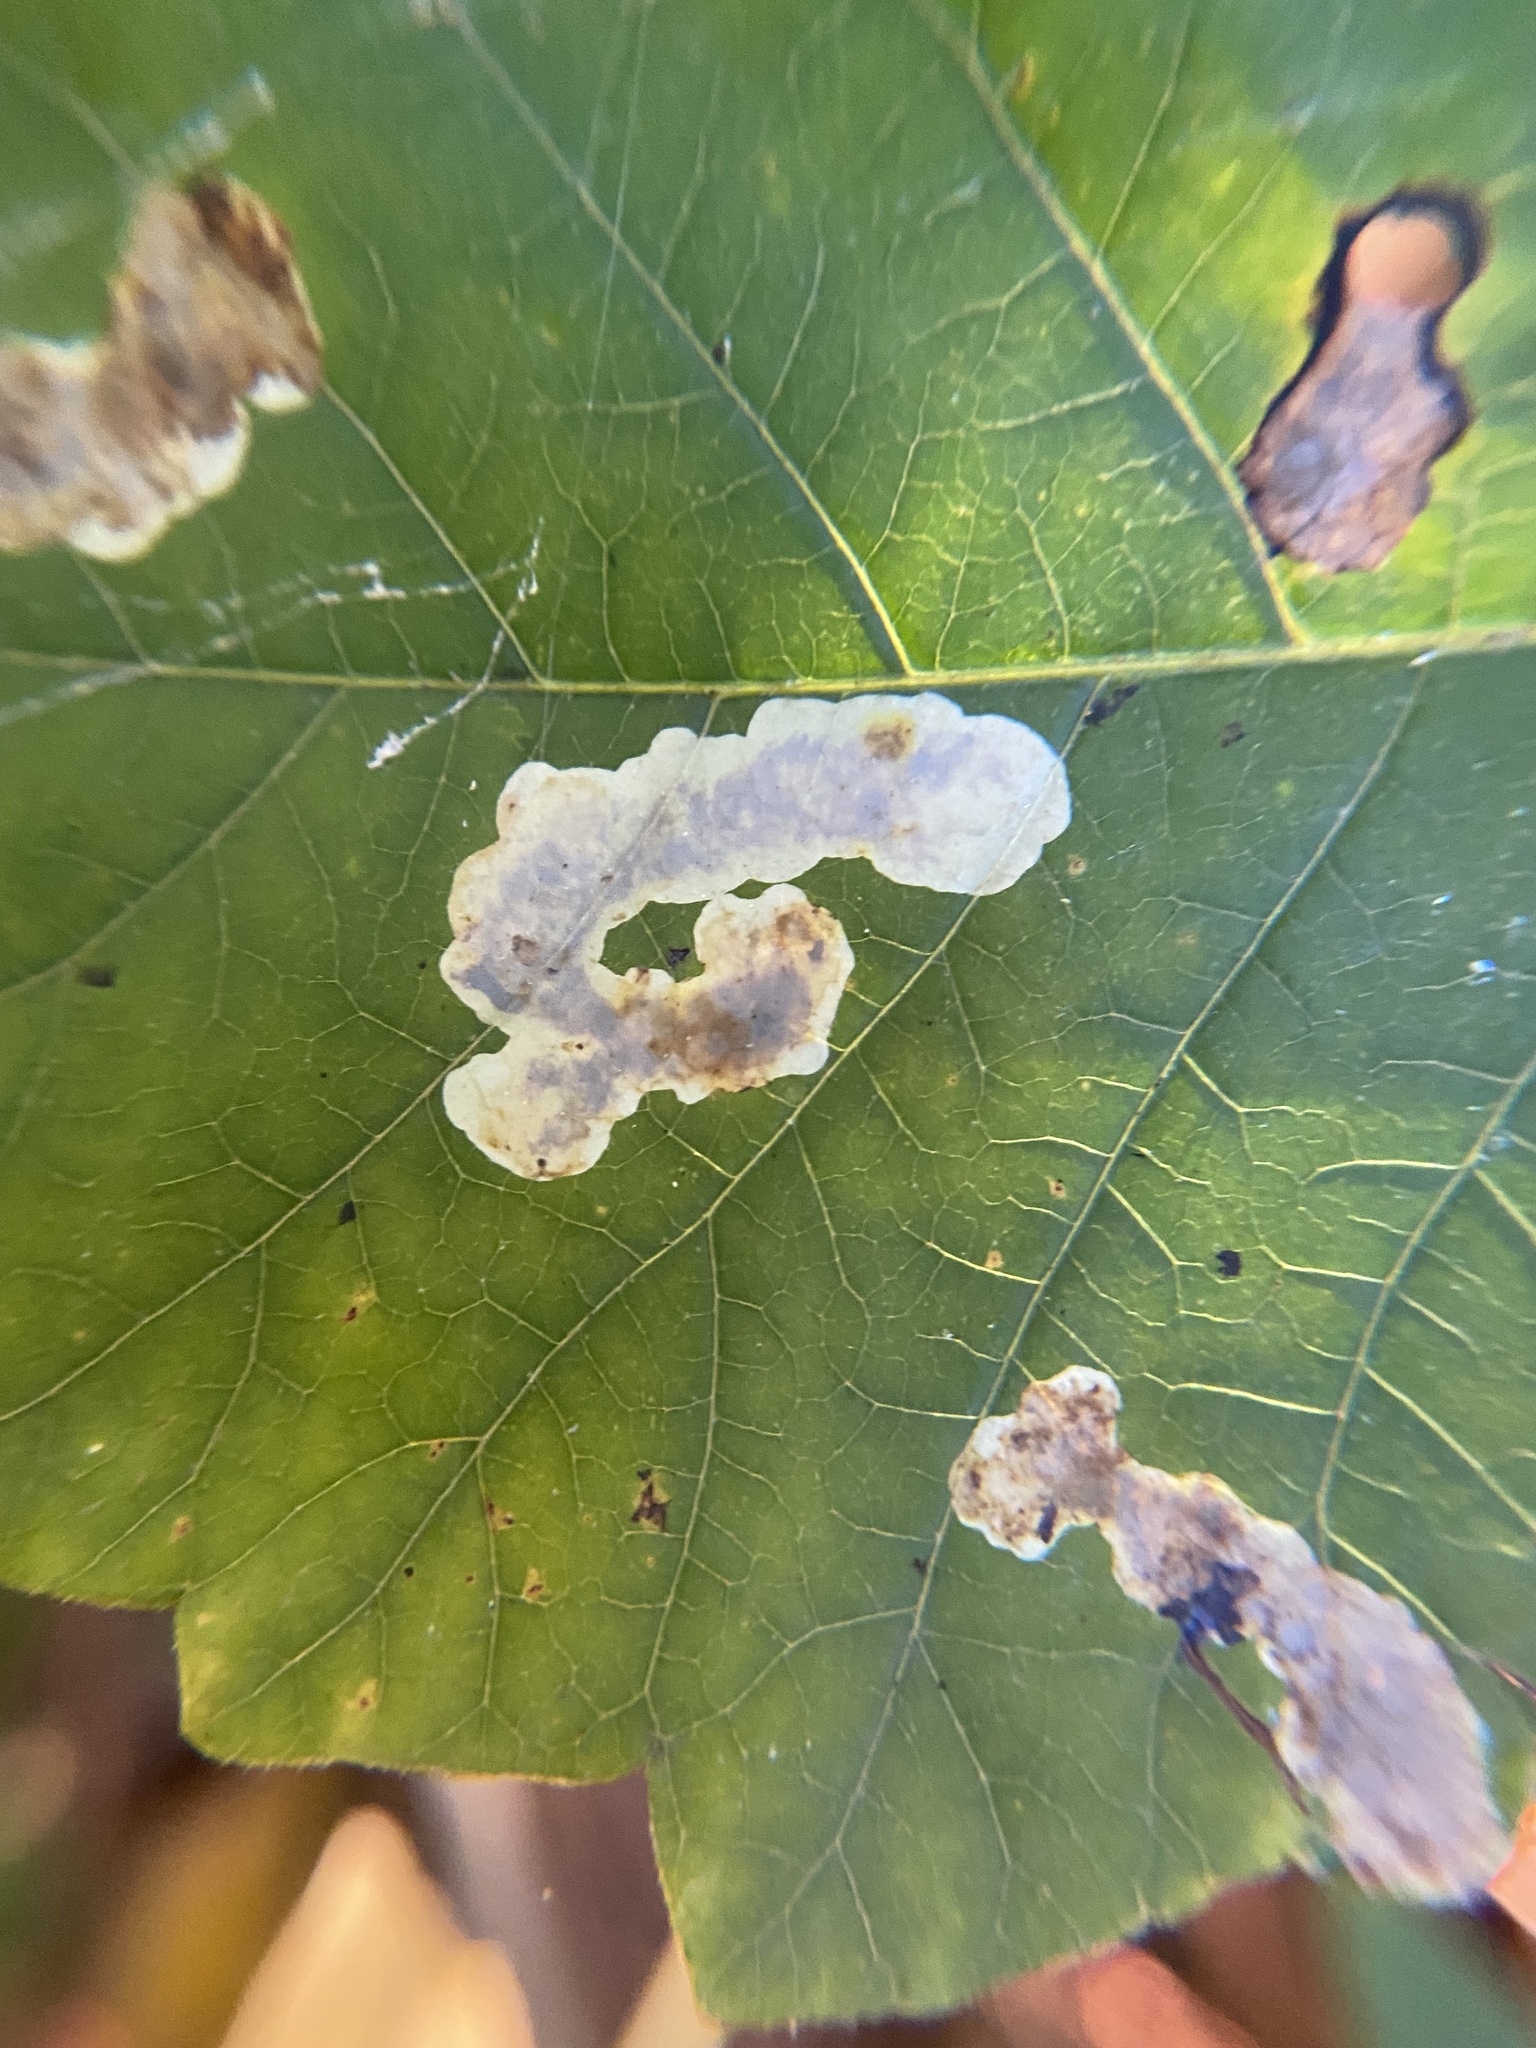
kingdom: Animalia
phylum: Arthropoda
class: Insecta
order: Lepidoptera
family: Gracillariidae
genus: Cameraria
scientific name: Cameraria guttifinitella
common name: Poison ivy leaf-miner moth
